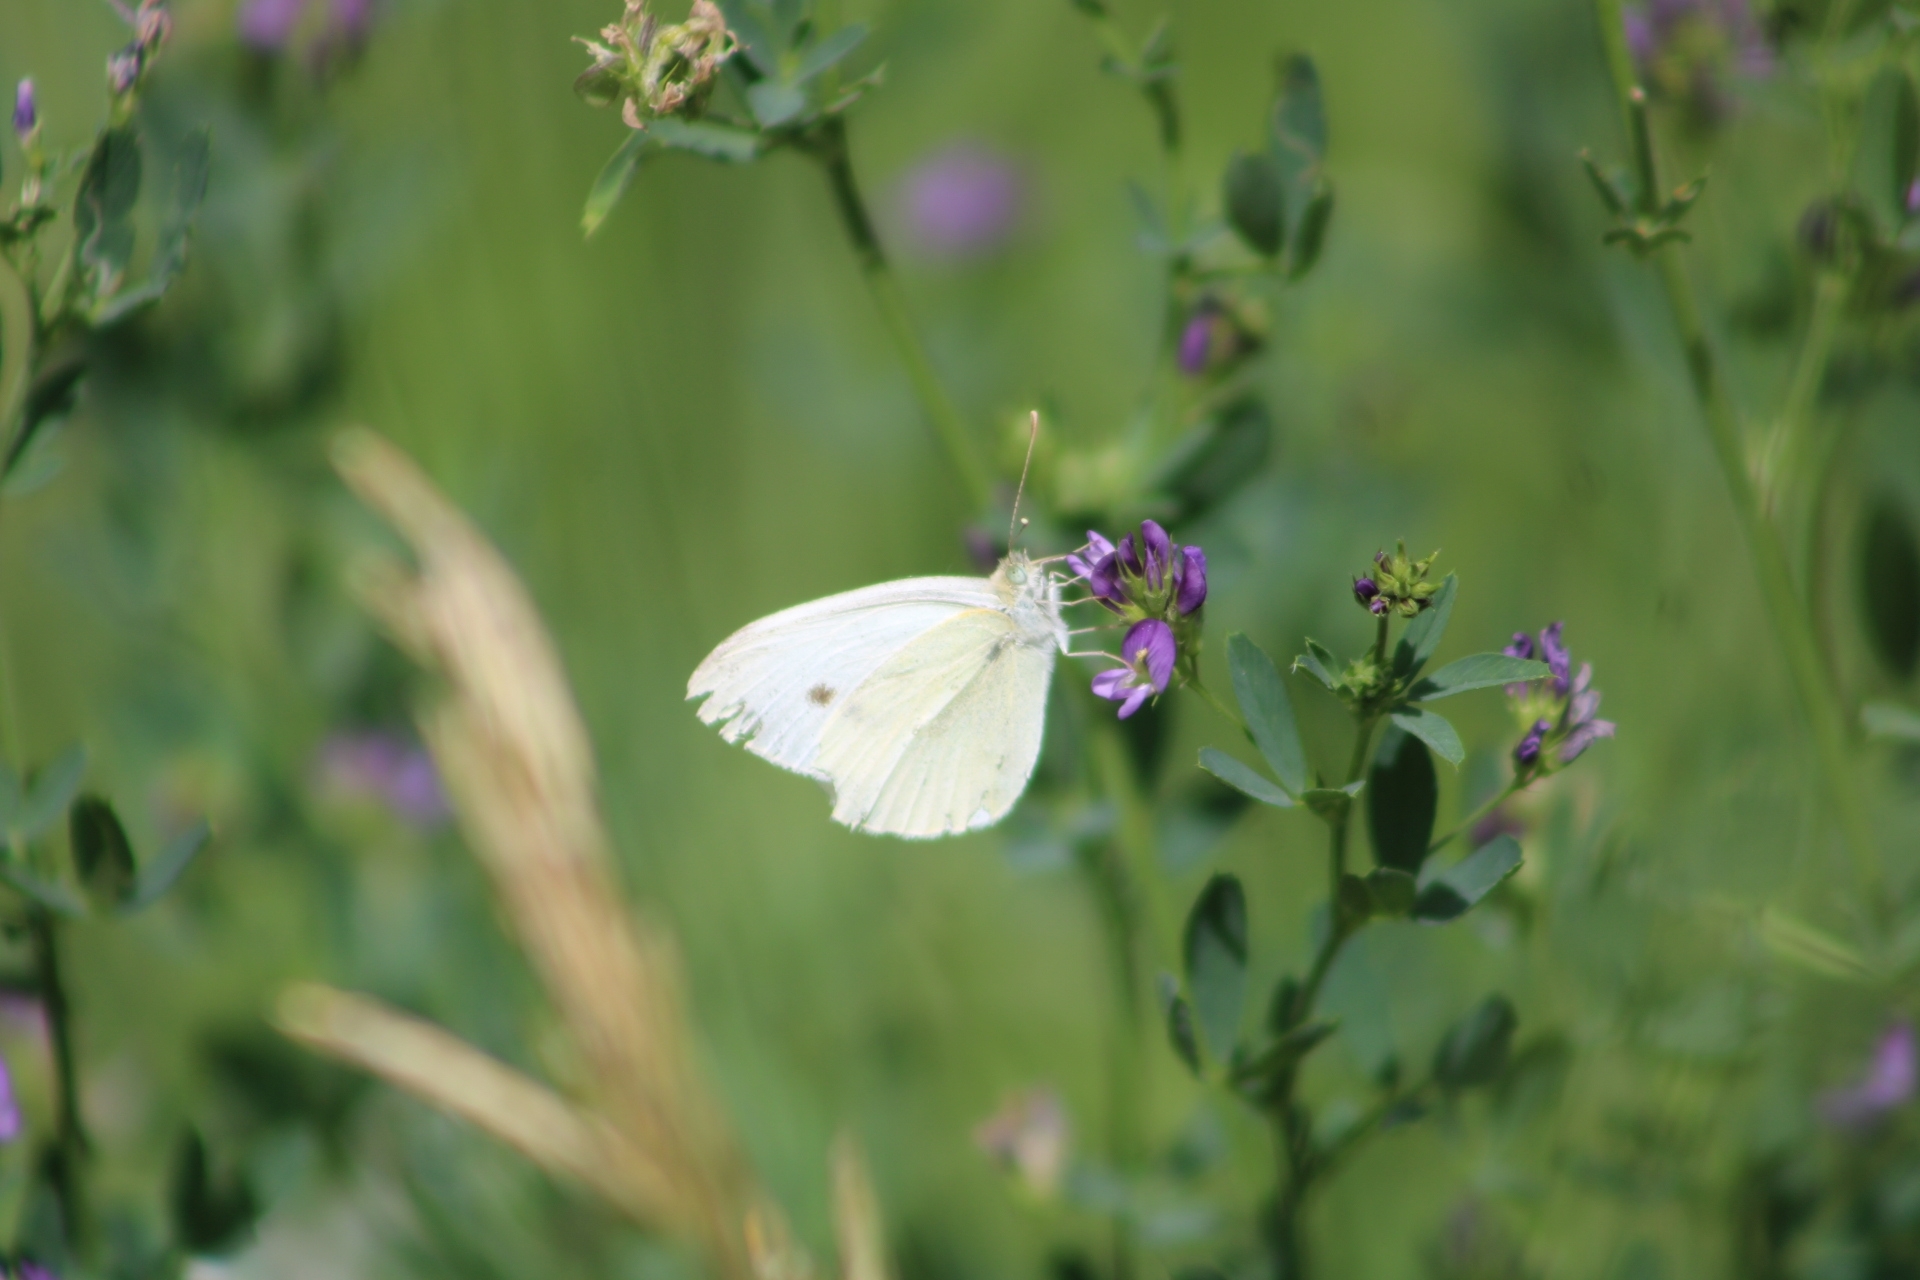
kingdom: Animalia
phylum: Arthropoda
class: Insecta
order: Lepidoptera
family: Pieridae
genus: Pieris
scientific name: Pieris rapae
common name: Small white
